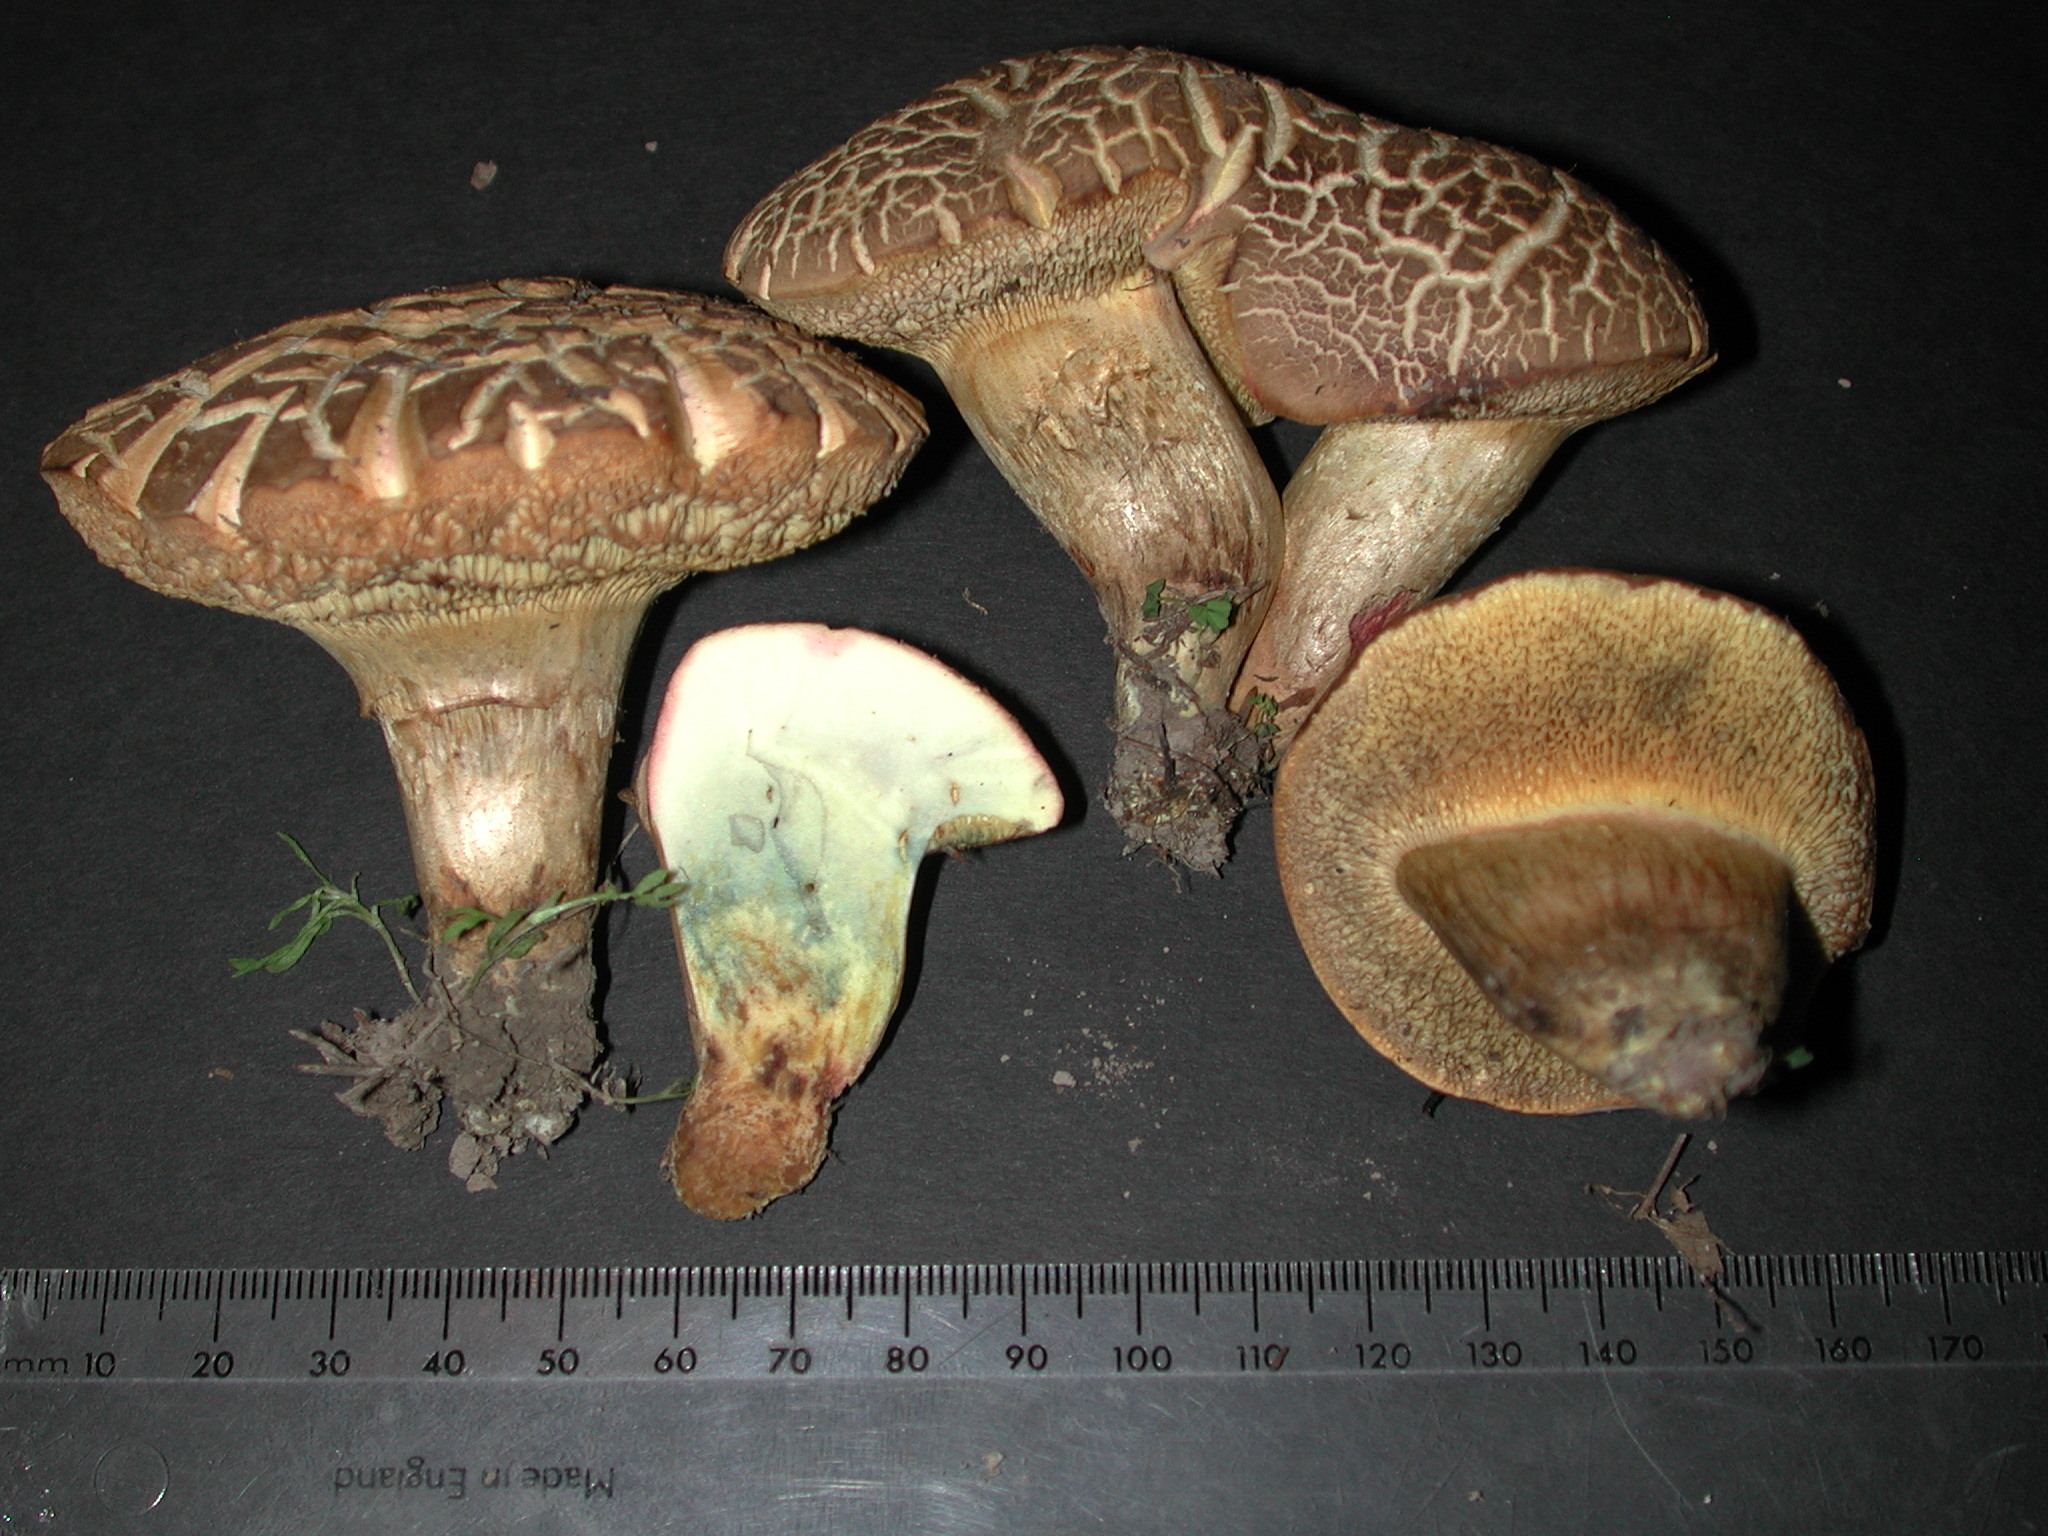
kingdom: Fungi
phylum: Basidiomycota
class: Agaricomycetes
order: Boletales
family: Boletaceae
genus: Xerocomellus
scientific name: Xerocomellus cisalpinus
